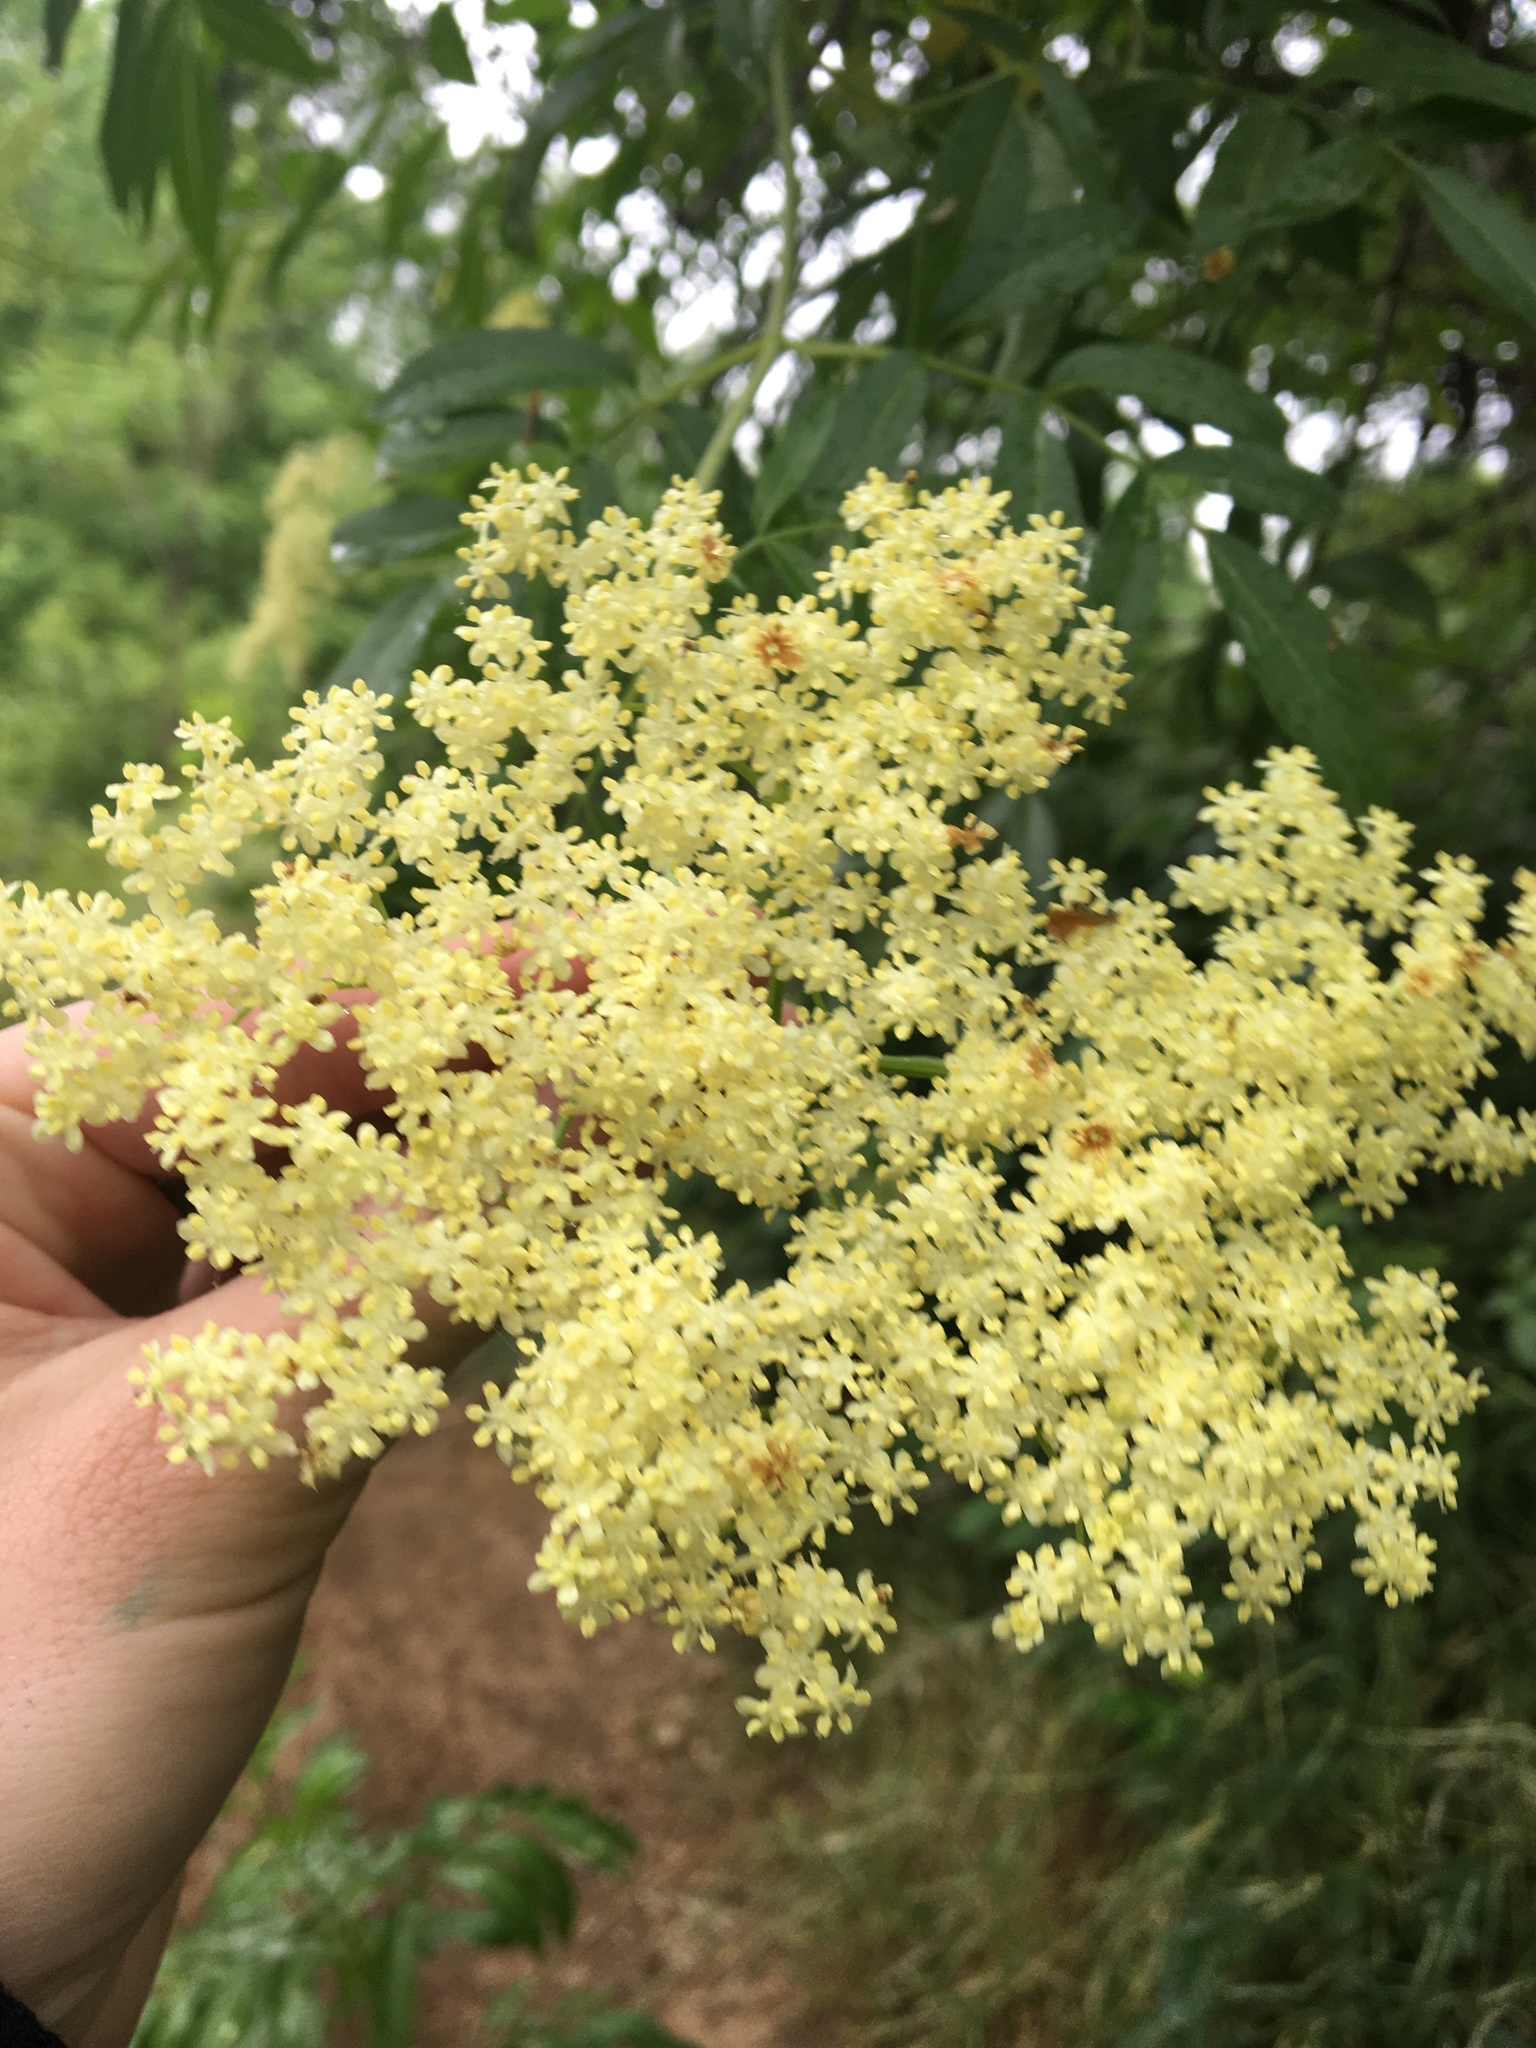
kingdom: Plantae
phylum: Tracheophyta
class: Magnoliopsida
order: Dipsacales
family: Viburnaceae
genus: Sambucus
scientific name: Sambucus cerulea
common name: Blue elder
